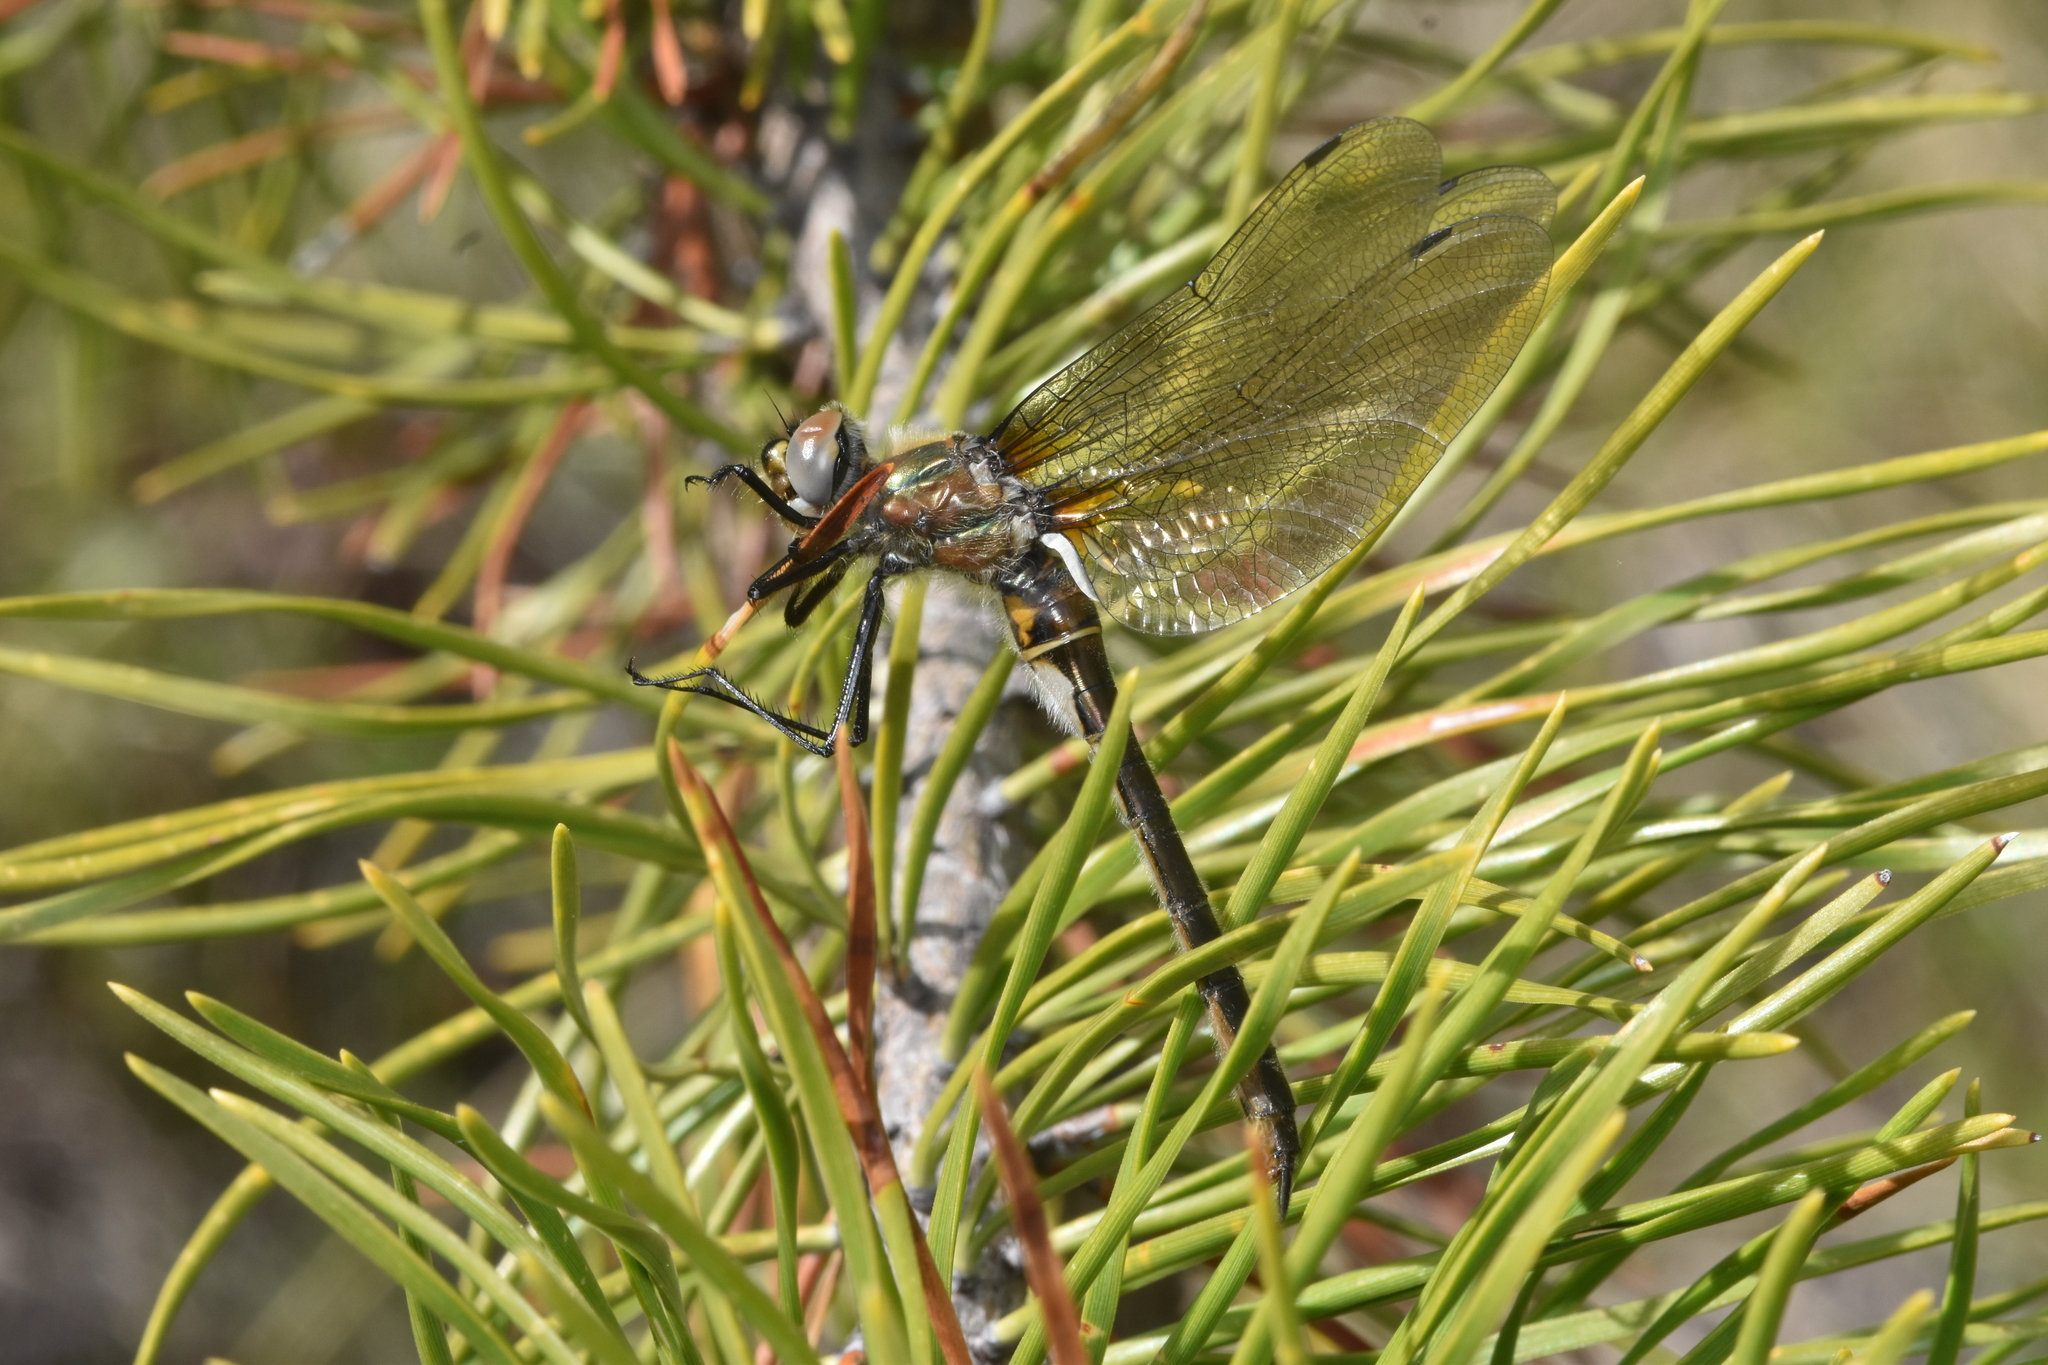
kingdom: Animalia
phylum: Arthropoda
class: Insecta
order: Odonata
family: Corduliidae
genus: Cordulia
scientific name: Cordulia shurtleffii
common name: American emerald
